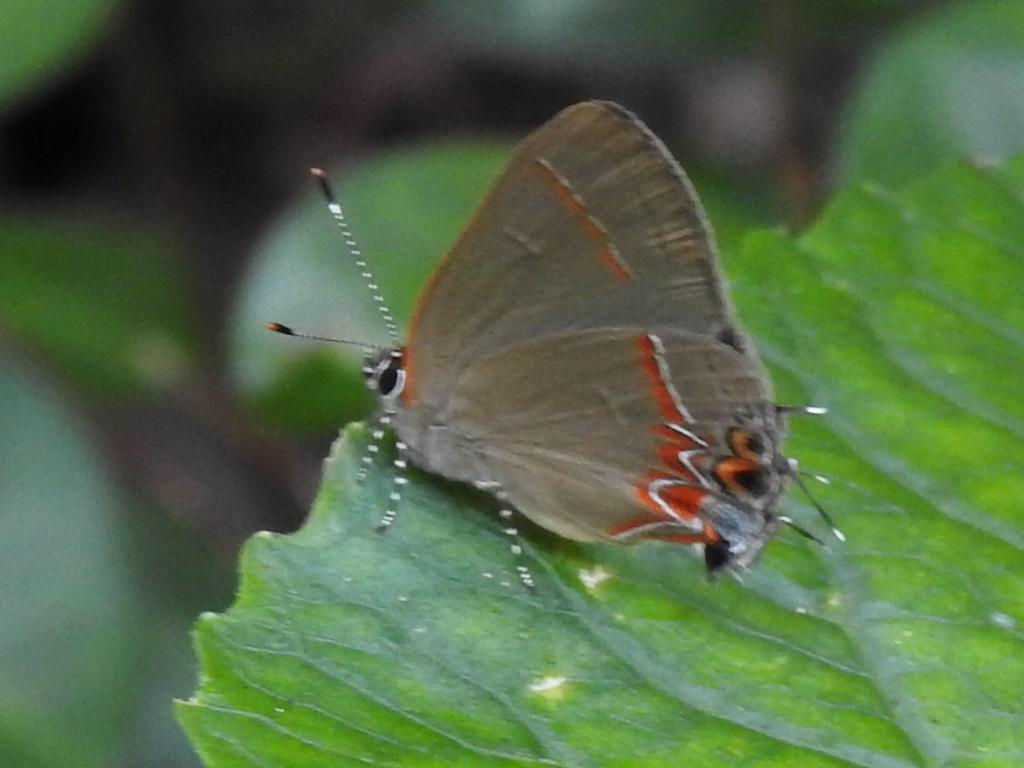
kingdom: Animalia
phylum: Arthropoda
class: Insecta
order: Lepidoptera
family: Lycaenidae
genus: Calycopis
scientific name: Calycopis cecrops
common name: Red-banded hairstreak
